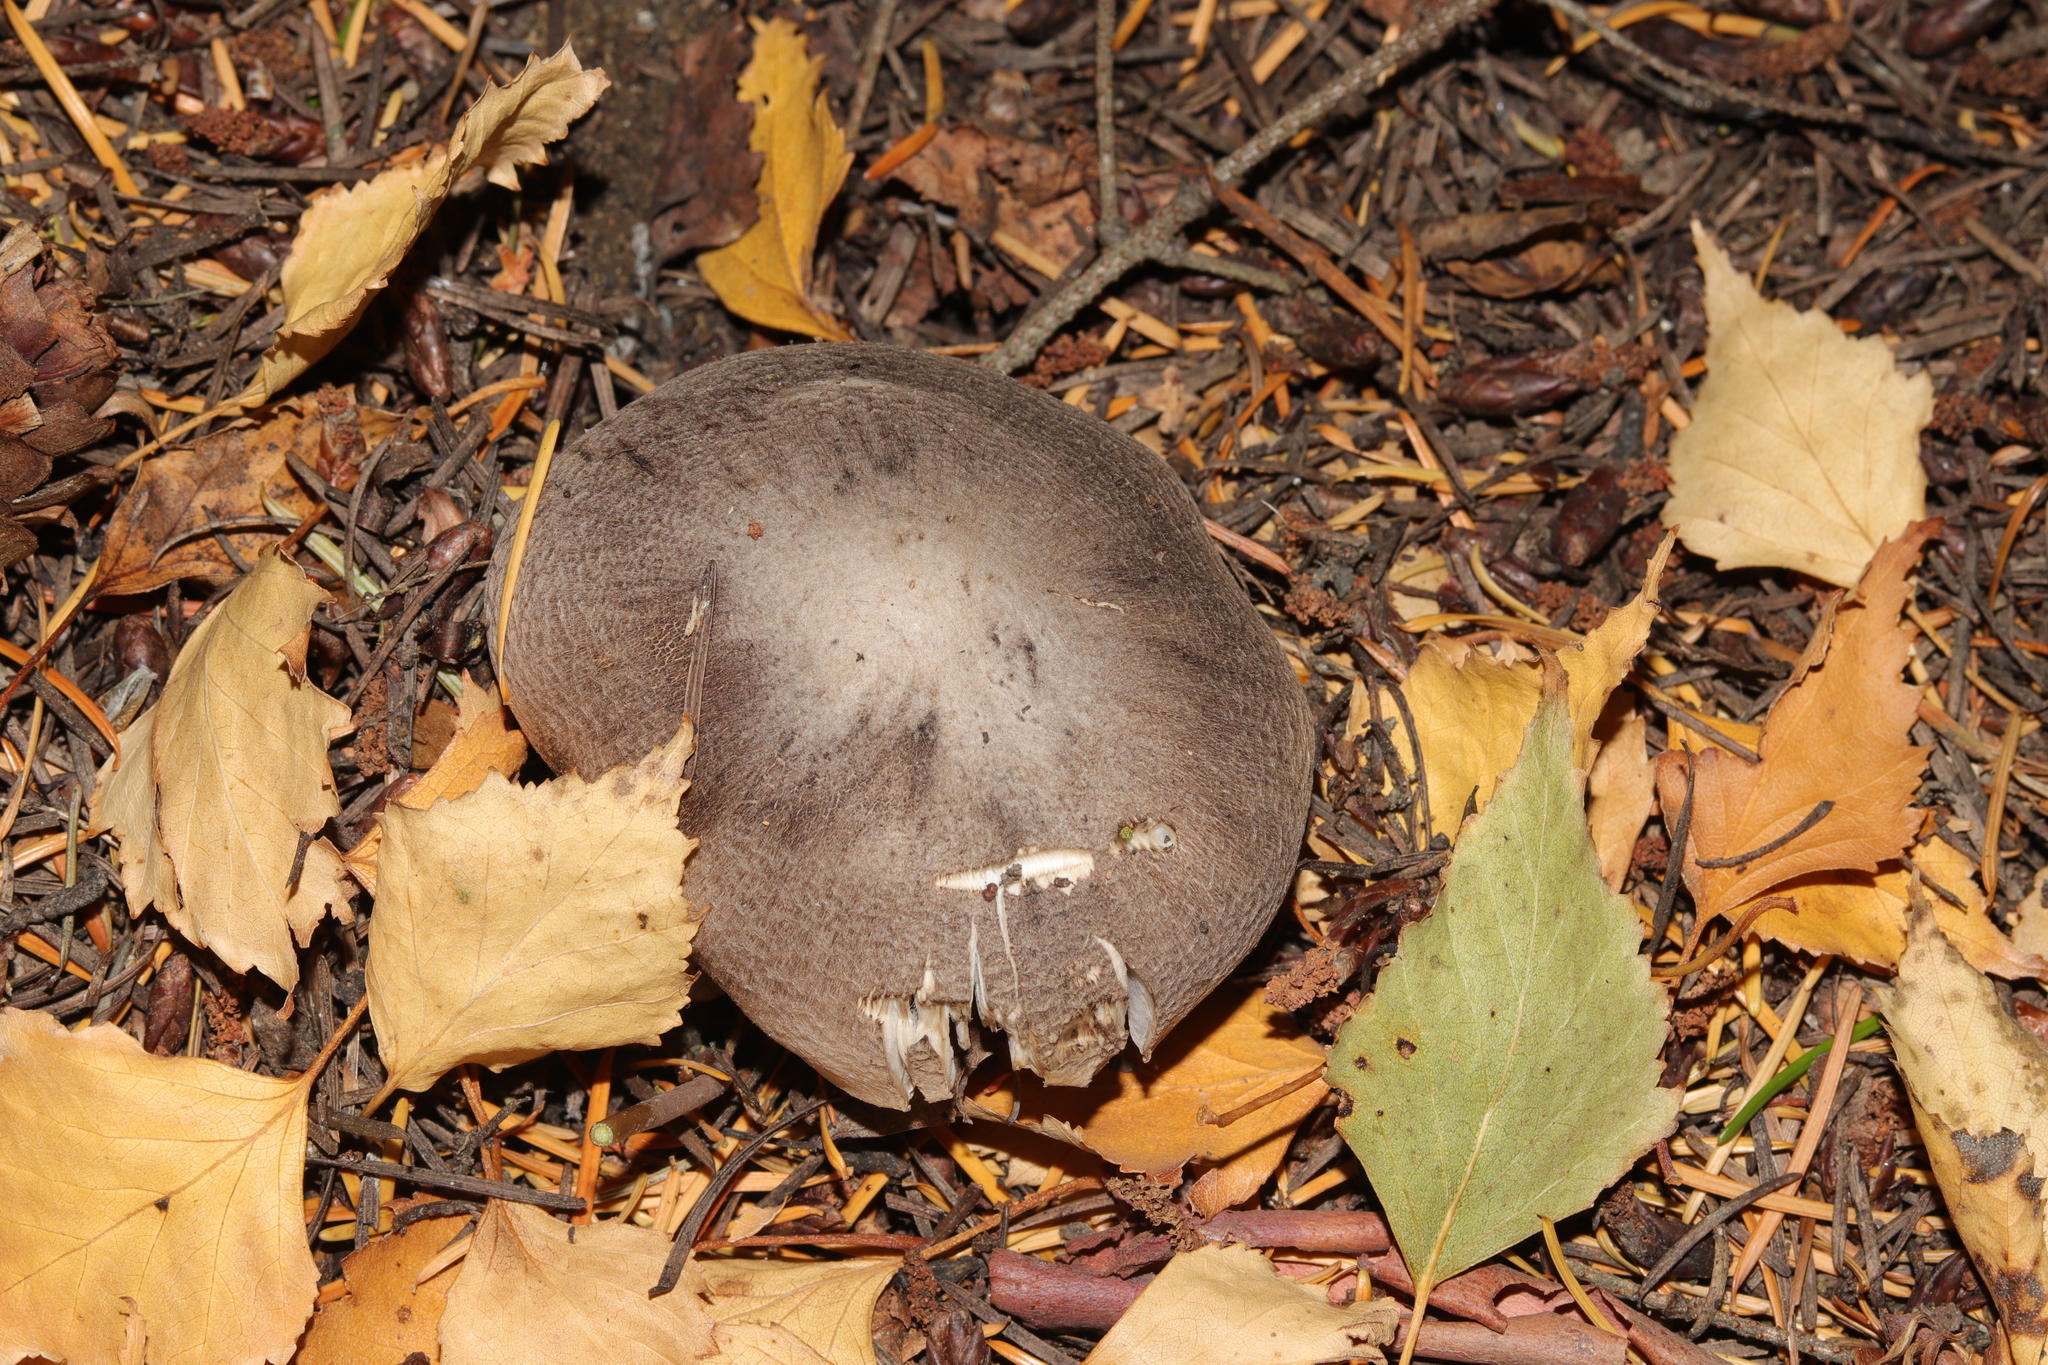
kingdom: Fungi
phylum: Basidiomycota
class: Agaricomycetes
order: Agaricales
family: Tricholomataceae
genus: Tricholoma
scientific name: Tricholoma terreum
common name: Grey knight
